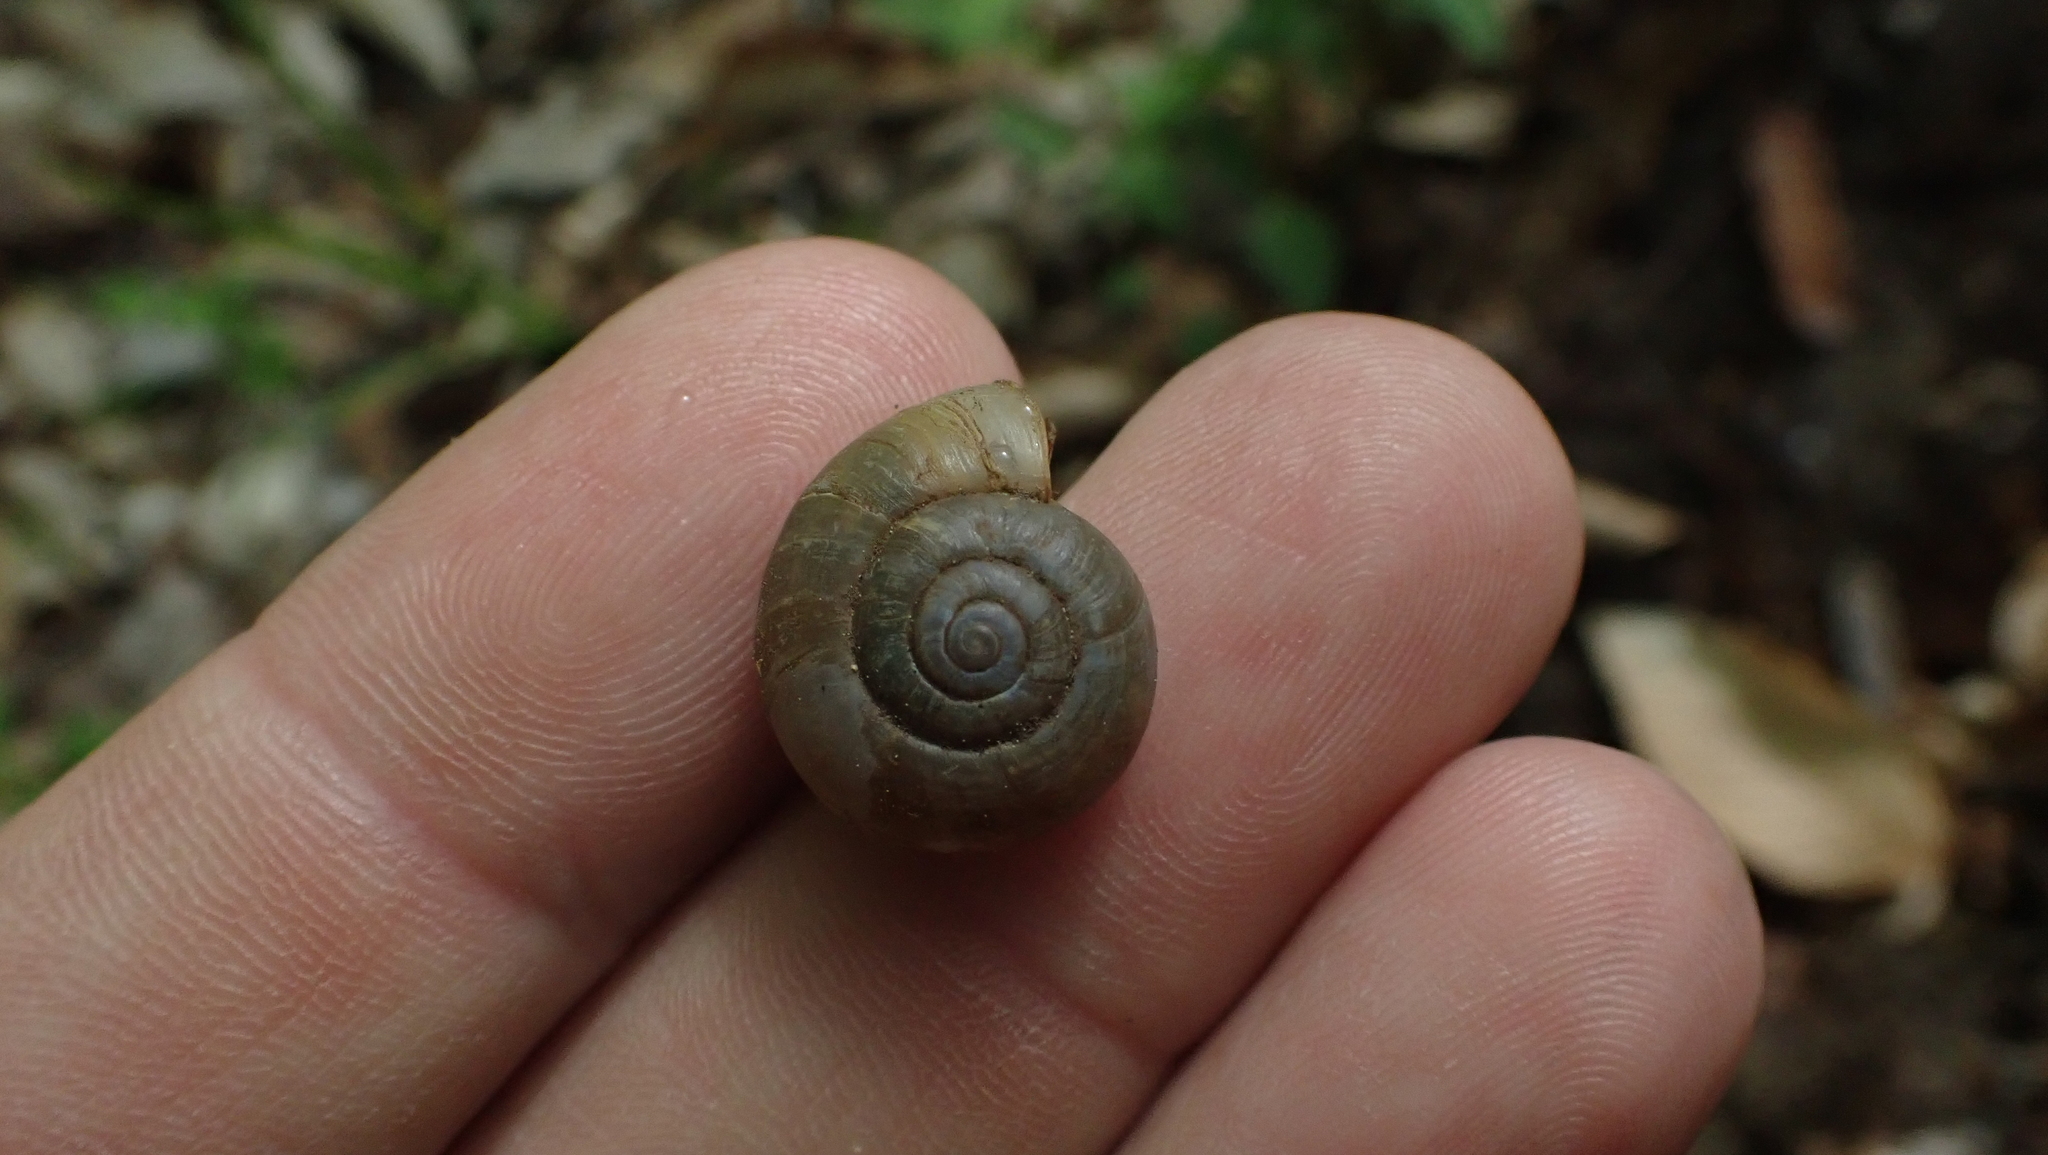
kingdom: Animalia
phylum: Mollusca
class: Gastropoda
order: Stylommatophora
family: Haplotrematidae
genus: Haplotrema
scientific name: Haplotrema concavum
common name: Gray-foot lancetooth
